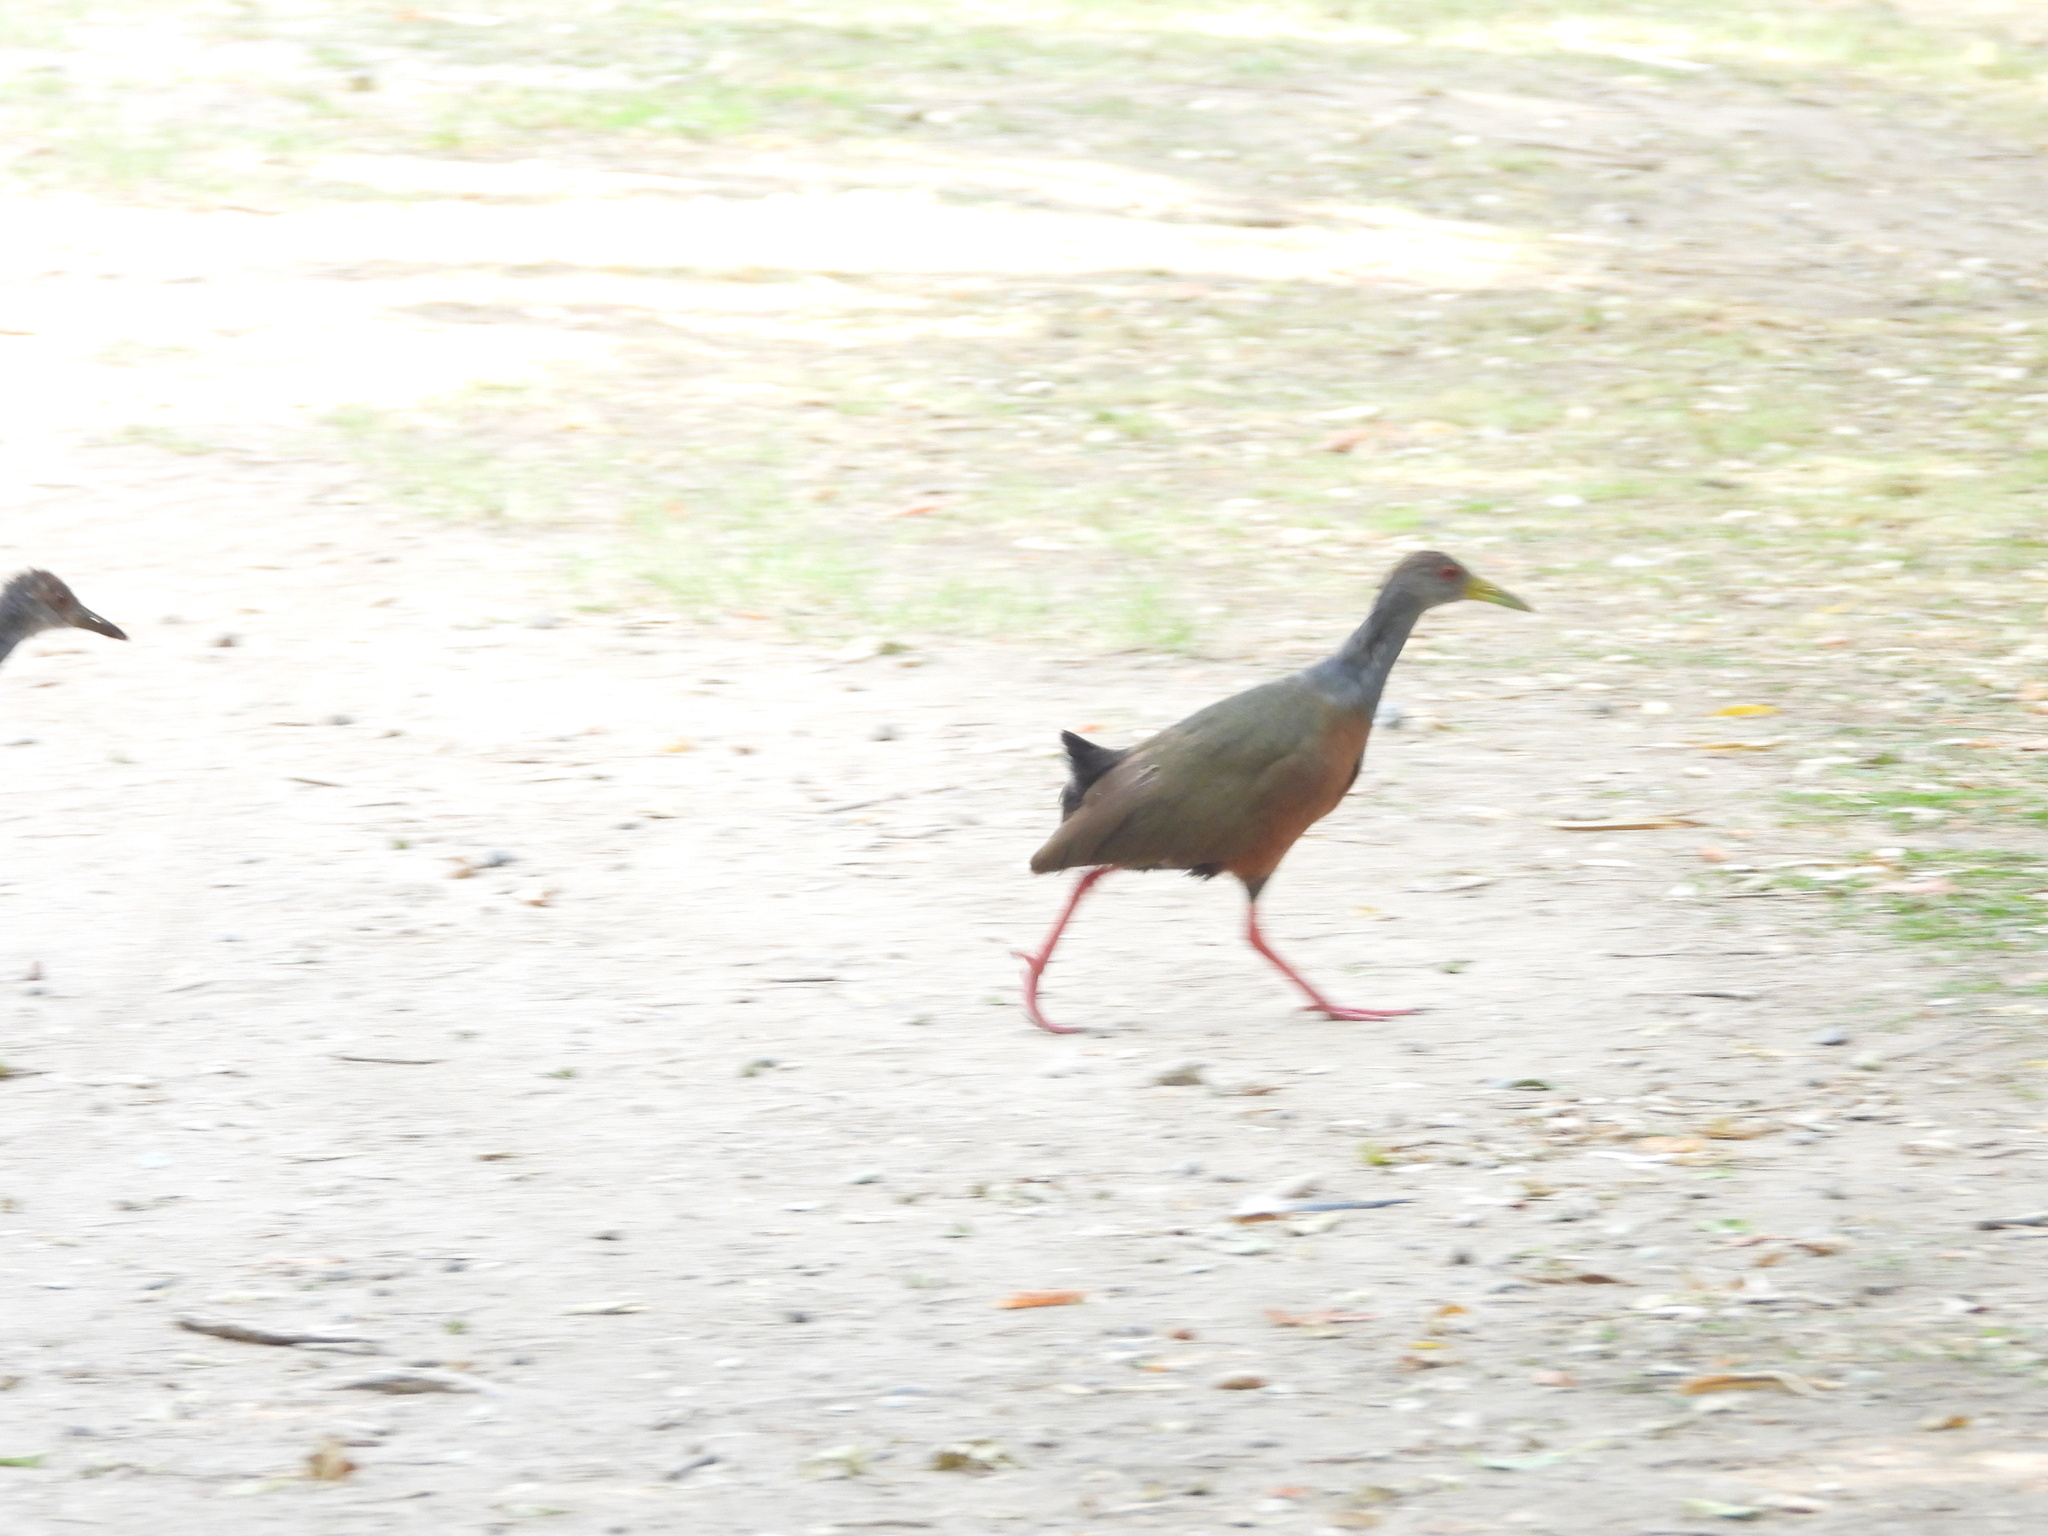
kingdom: Animalia
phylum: Chordata
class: Aves
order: Gruiformes
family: Rallidae
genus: Aramides
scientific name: Aramides cajanea
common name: Gray-necked wood-rail
